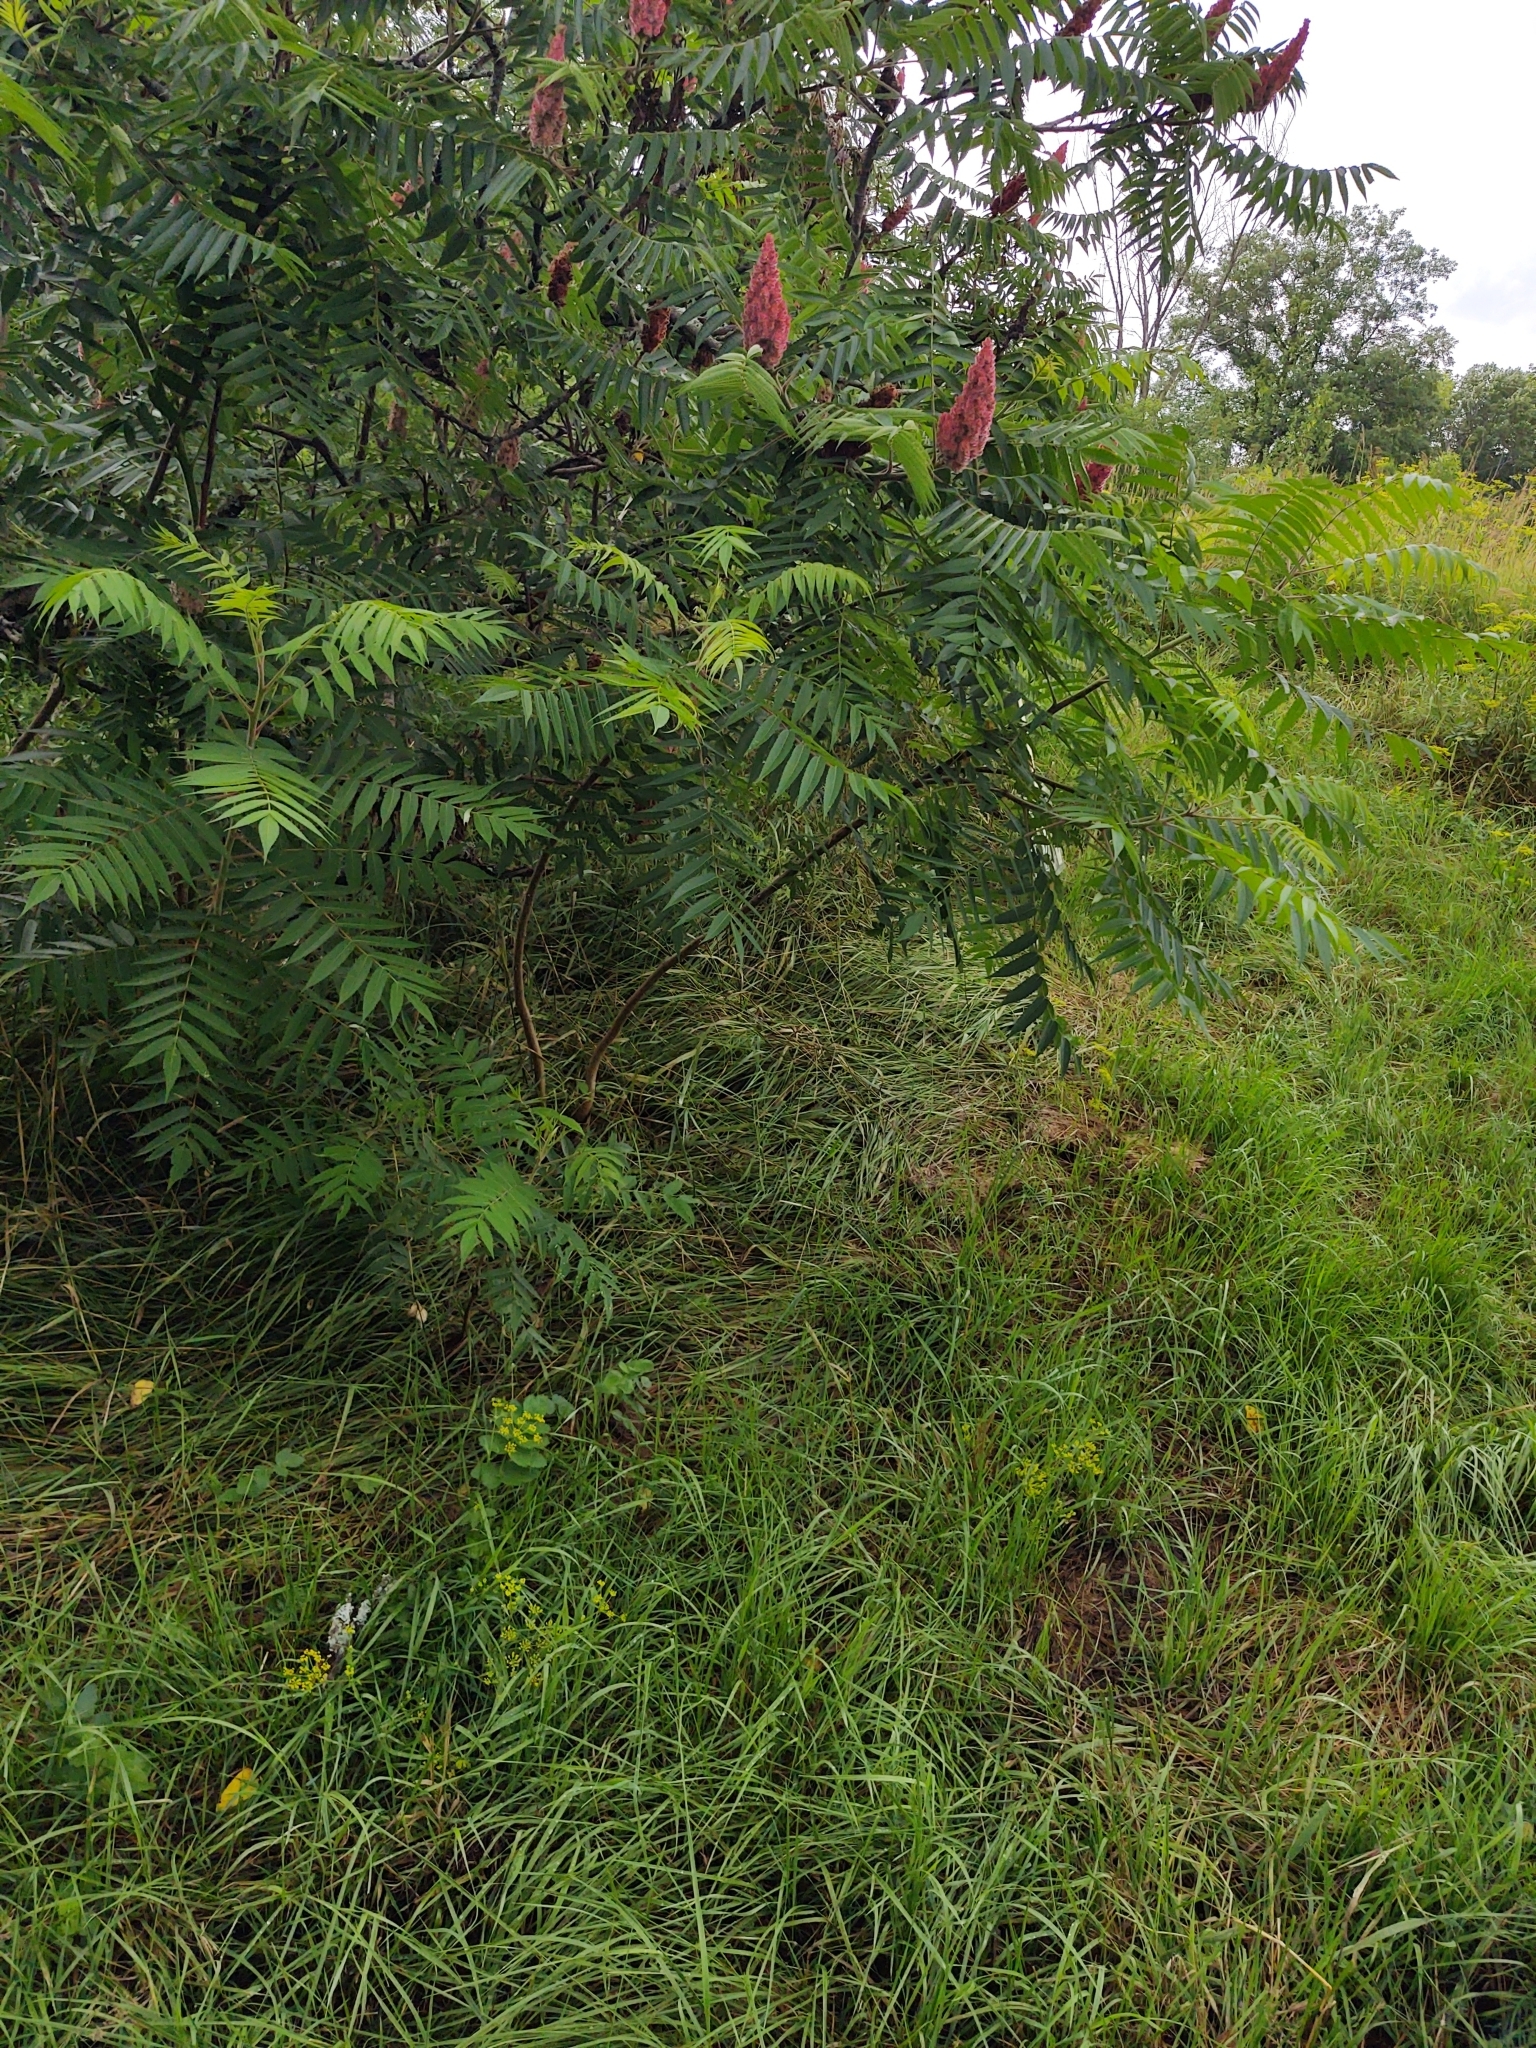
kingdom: Plantae
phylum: Tracheophyta
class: Magnoliopsida
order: Sapindales
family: Anacardiaceae
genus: Rhus
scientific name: Rhus typhina
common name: Staghorn sumac
